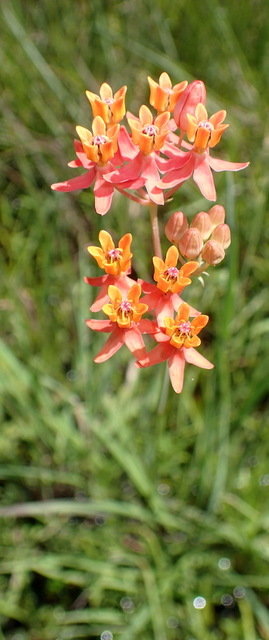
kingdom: Plantae
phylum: Tracheophyta
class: Magnoliopsida
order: Gentianales
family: Apocynaceae
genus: Asclepias
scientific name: Asclepias lanceolata
